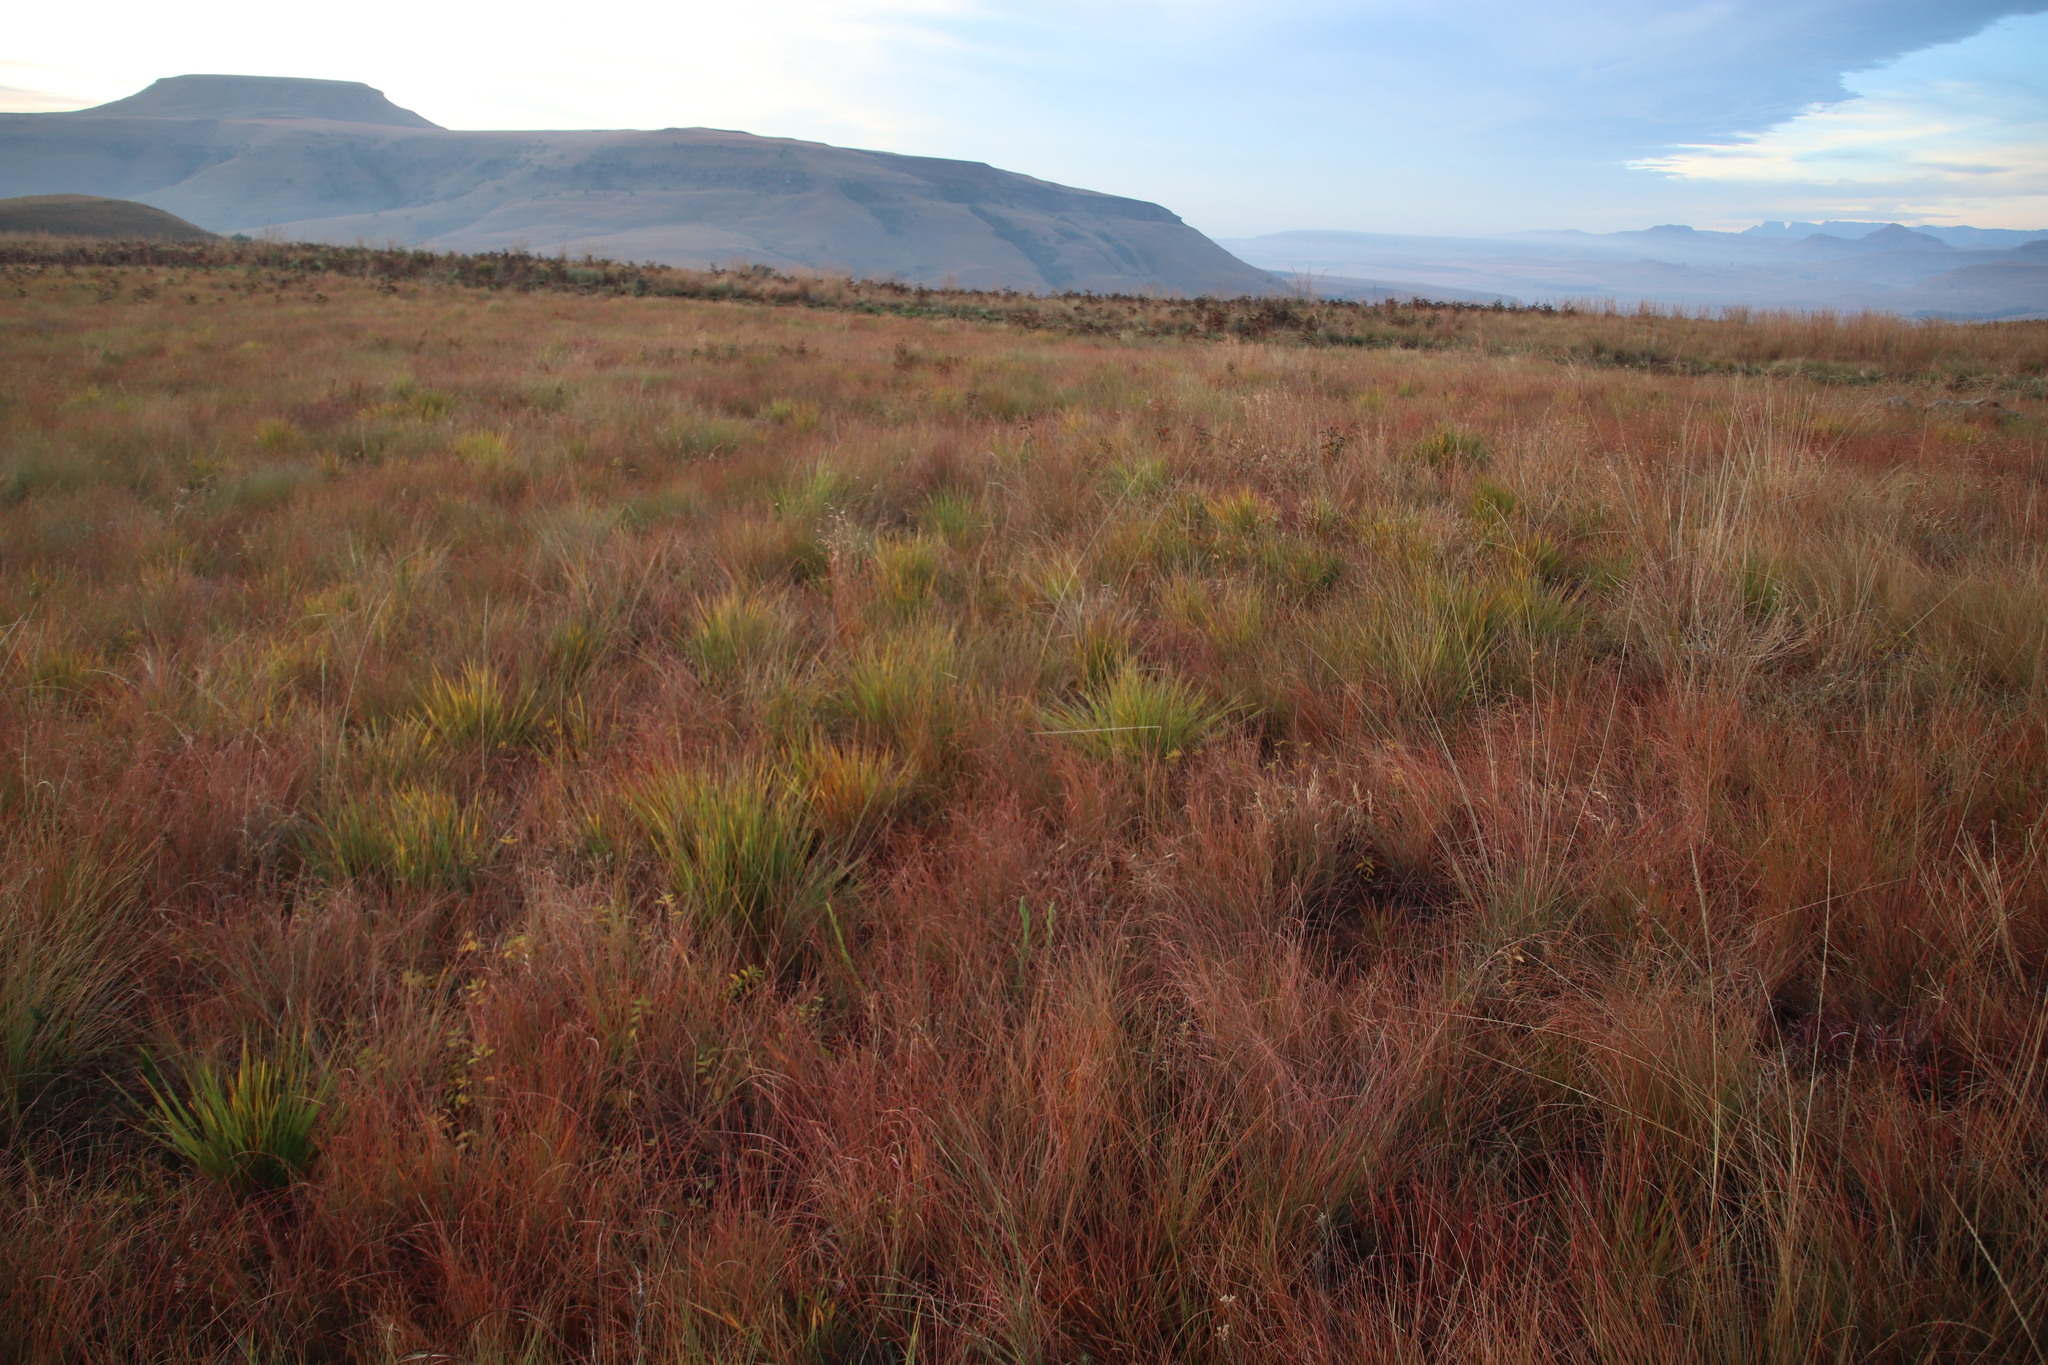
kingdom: Plantae
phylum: Tracheophyta
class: Liliopsida
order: Poales
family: Poaceae
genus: Themeda
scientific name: Themeda triandra
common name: Kangaroo grass
